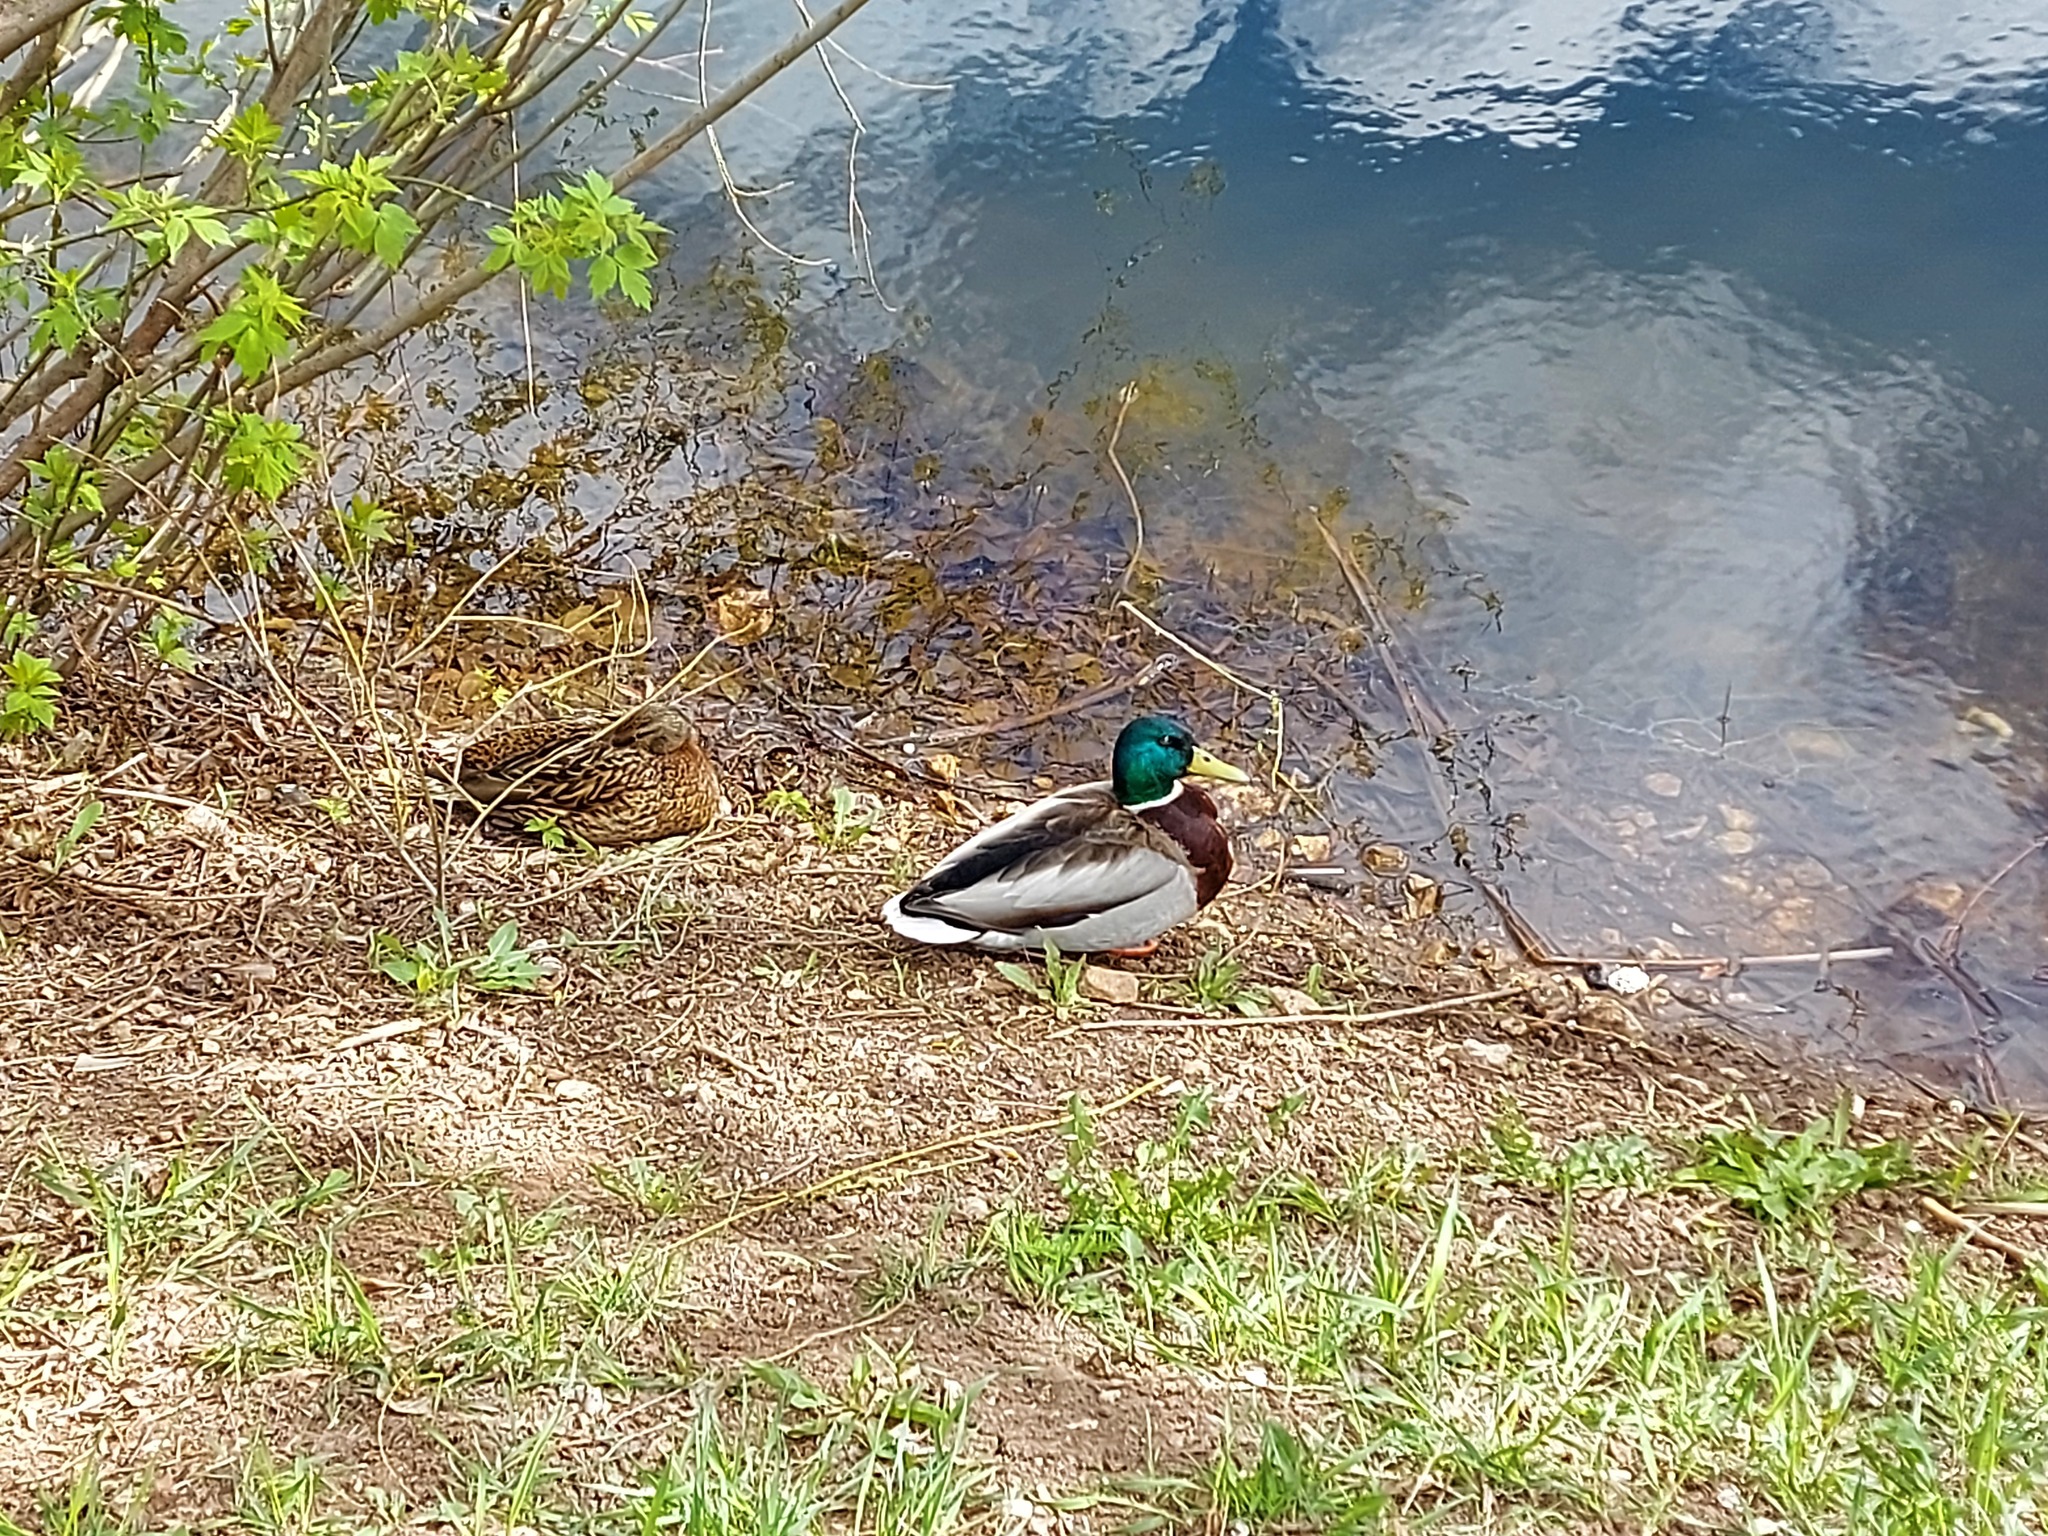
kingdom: Animalia
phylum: Chordata
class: Aves
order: Anseriformes
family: Anatidae
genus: Anas
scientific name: Anas platyrhynchos
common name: Mallard
